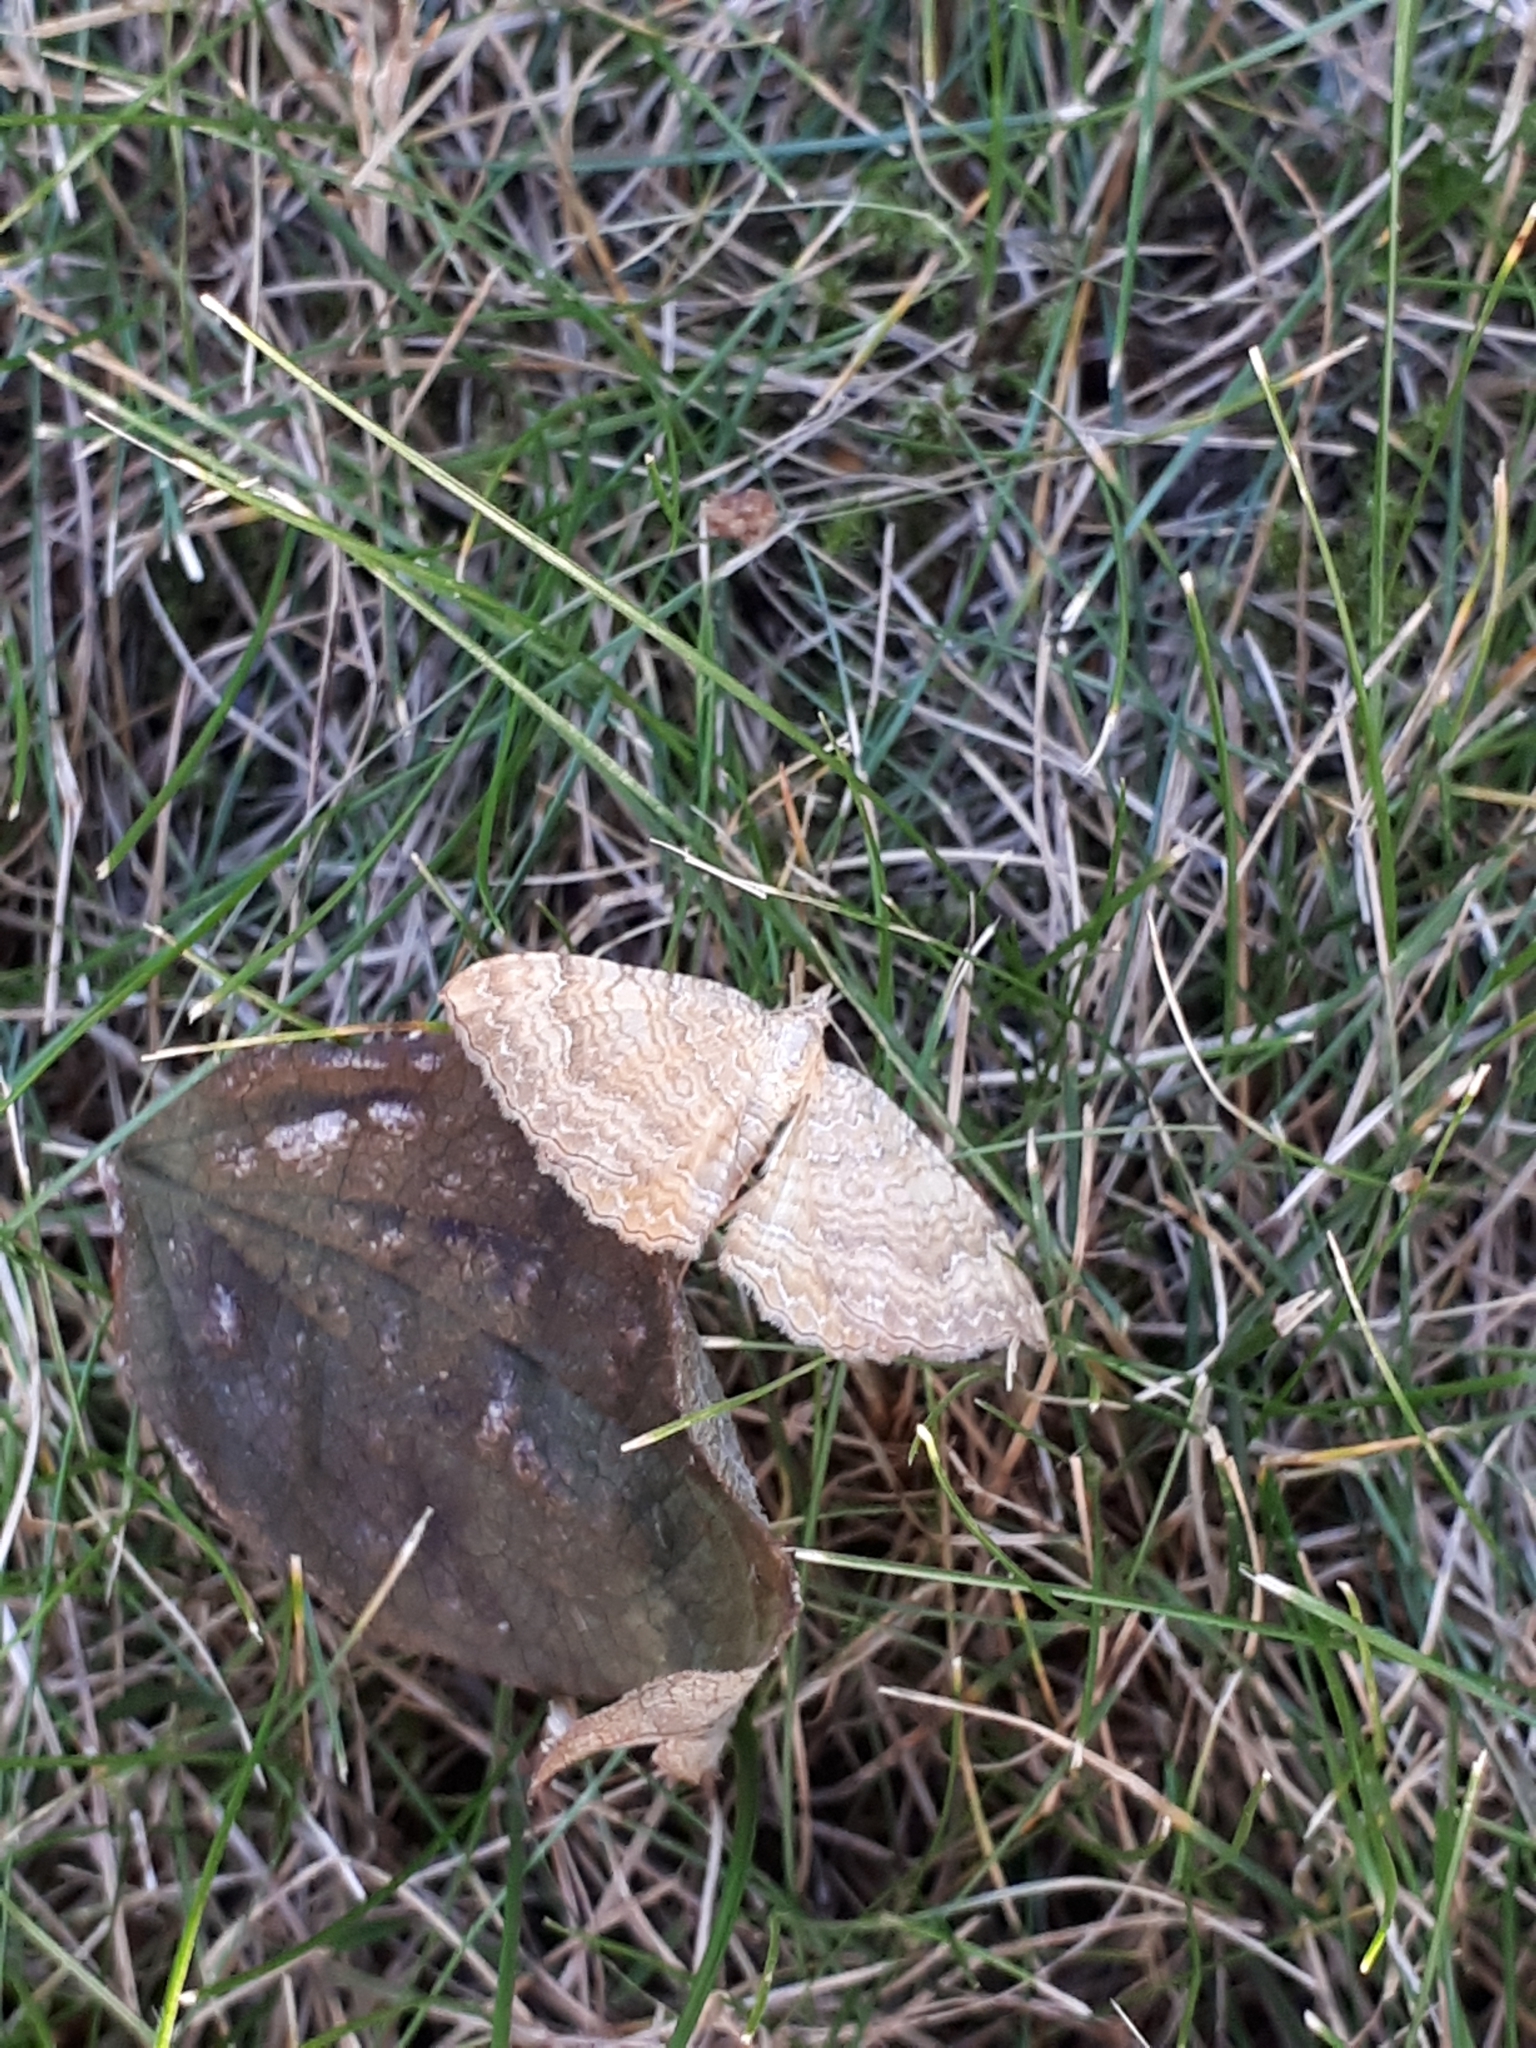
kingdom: Animalia
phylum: Arthropoda
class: Insecta
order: Lepidoptera
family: Geometridae
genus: Camptogramma
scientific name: Camptogramma bilineata
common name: Yellow shell
